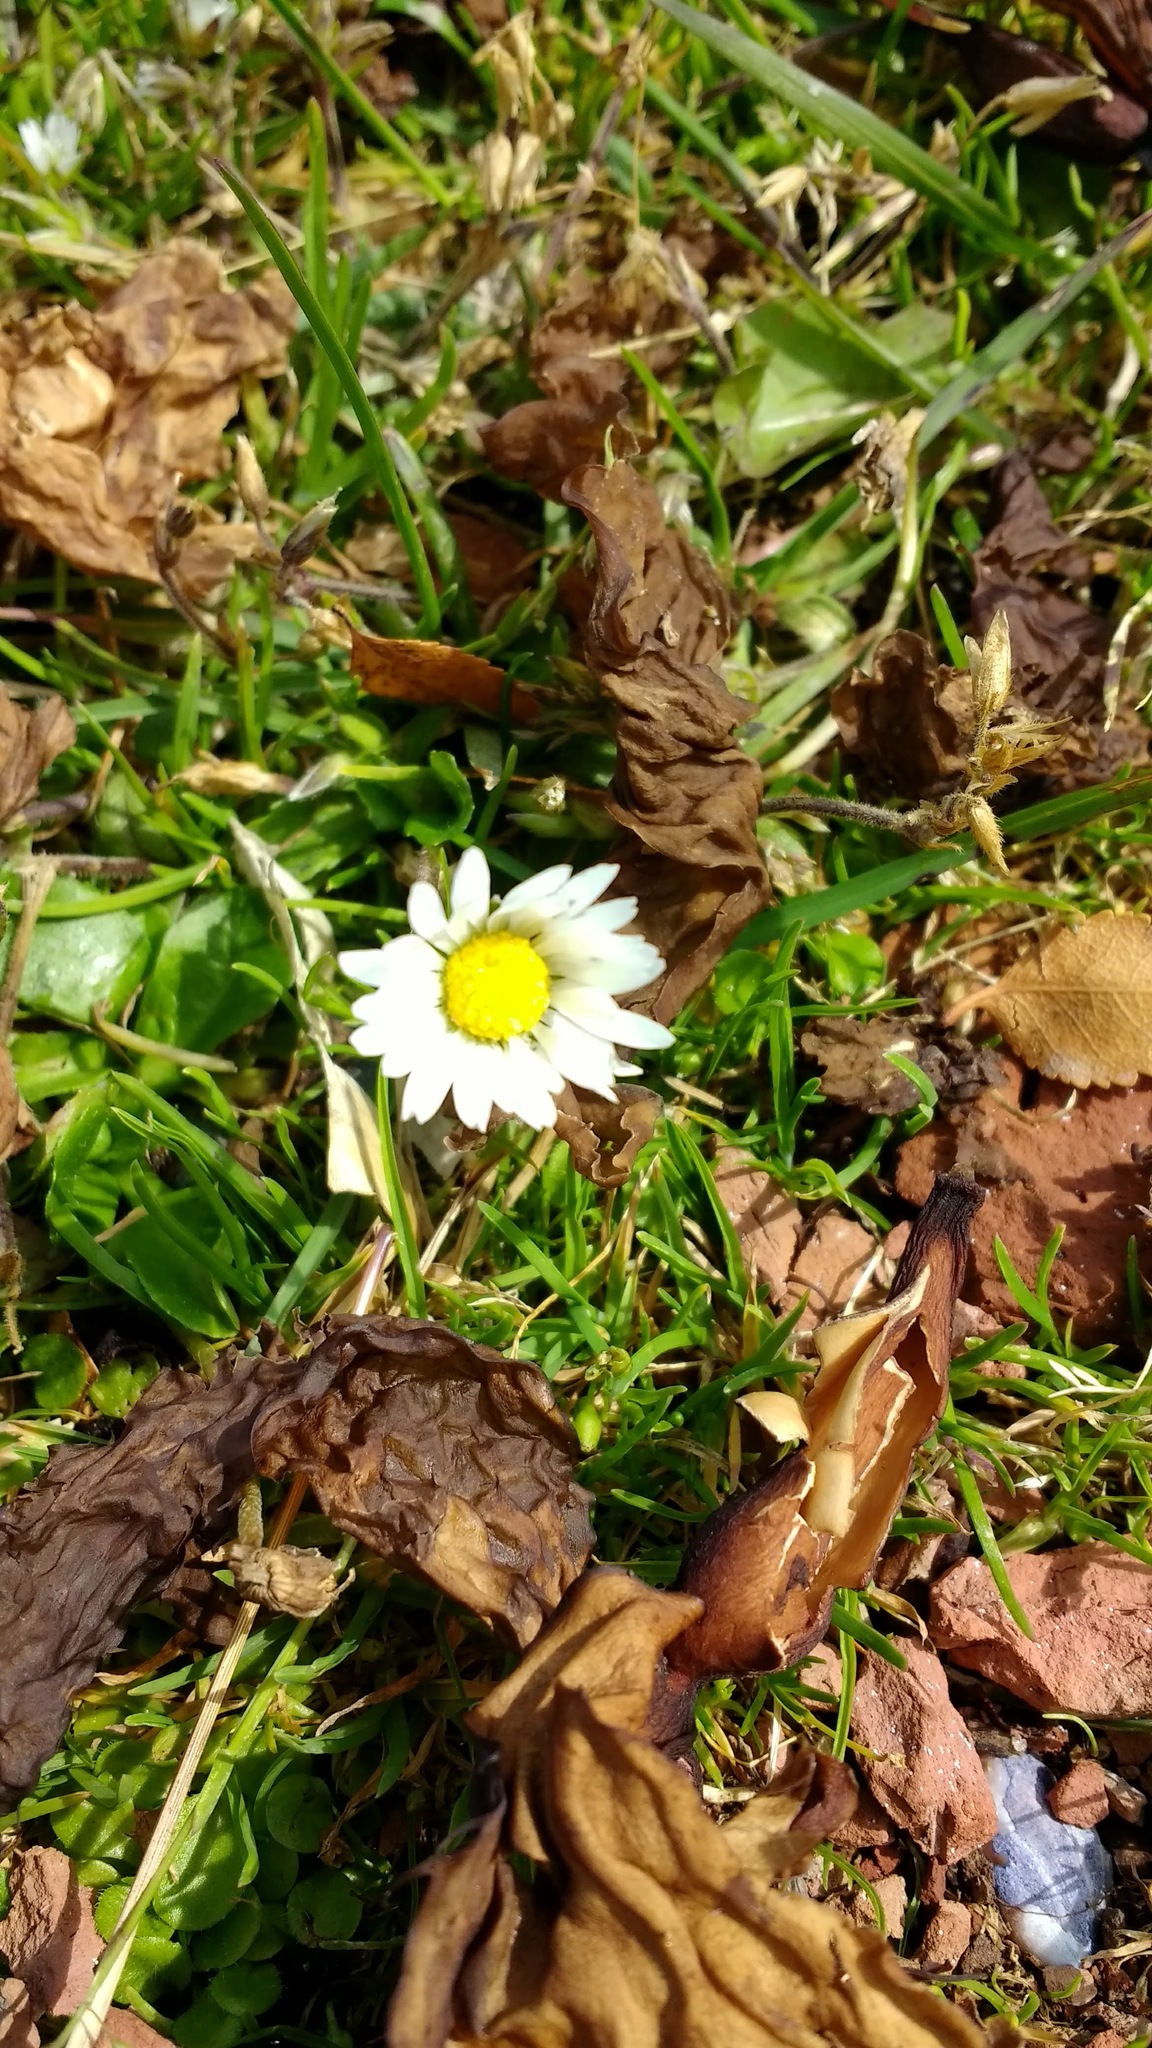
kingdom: Plantae
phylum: Tracheophyta
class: Magnoliopsida
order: Asterales
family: Asteraceae
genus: Bellis
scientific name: Bellis perennis
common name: Lawndaisy
